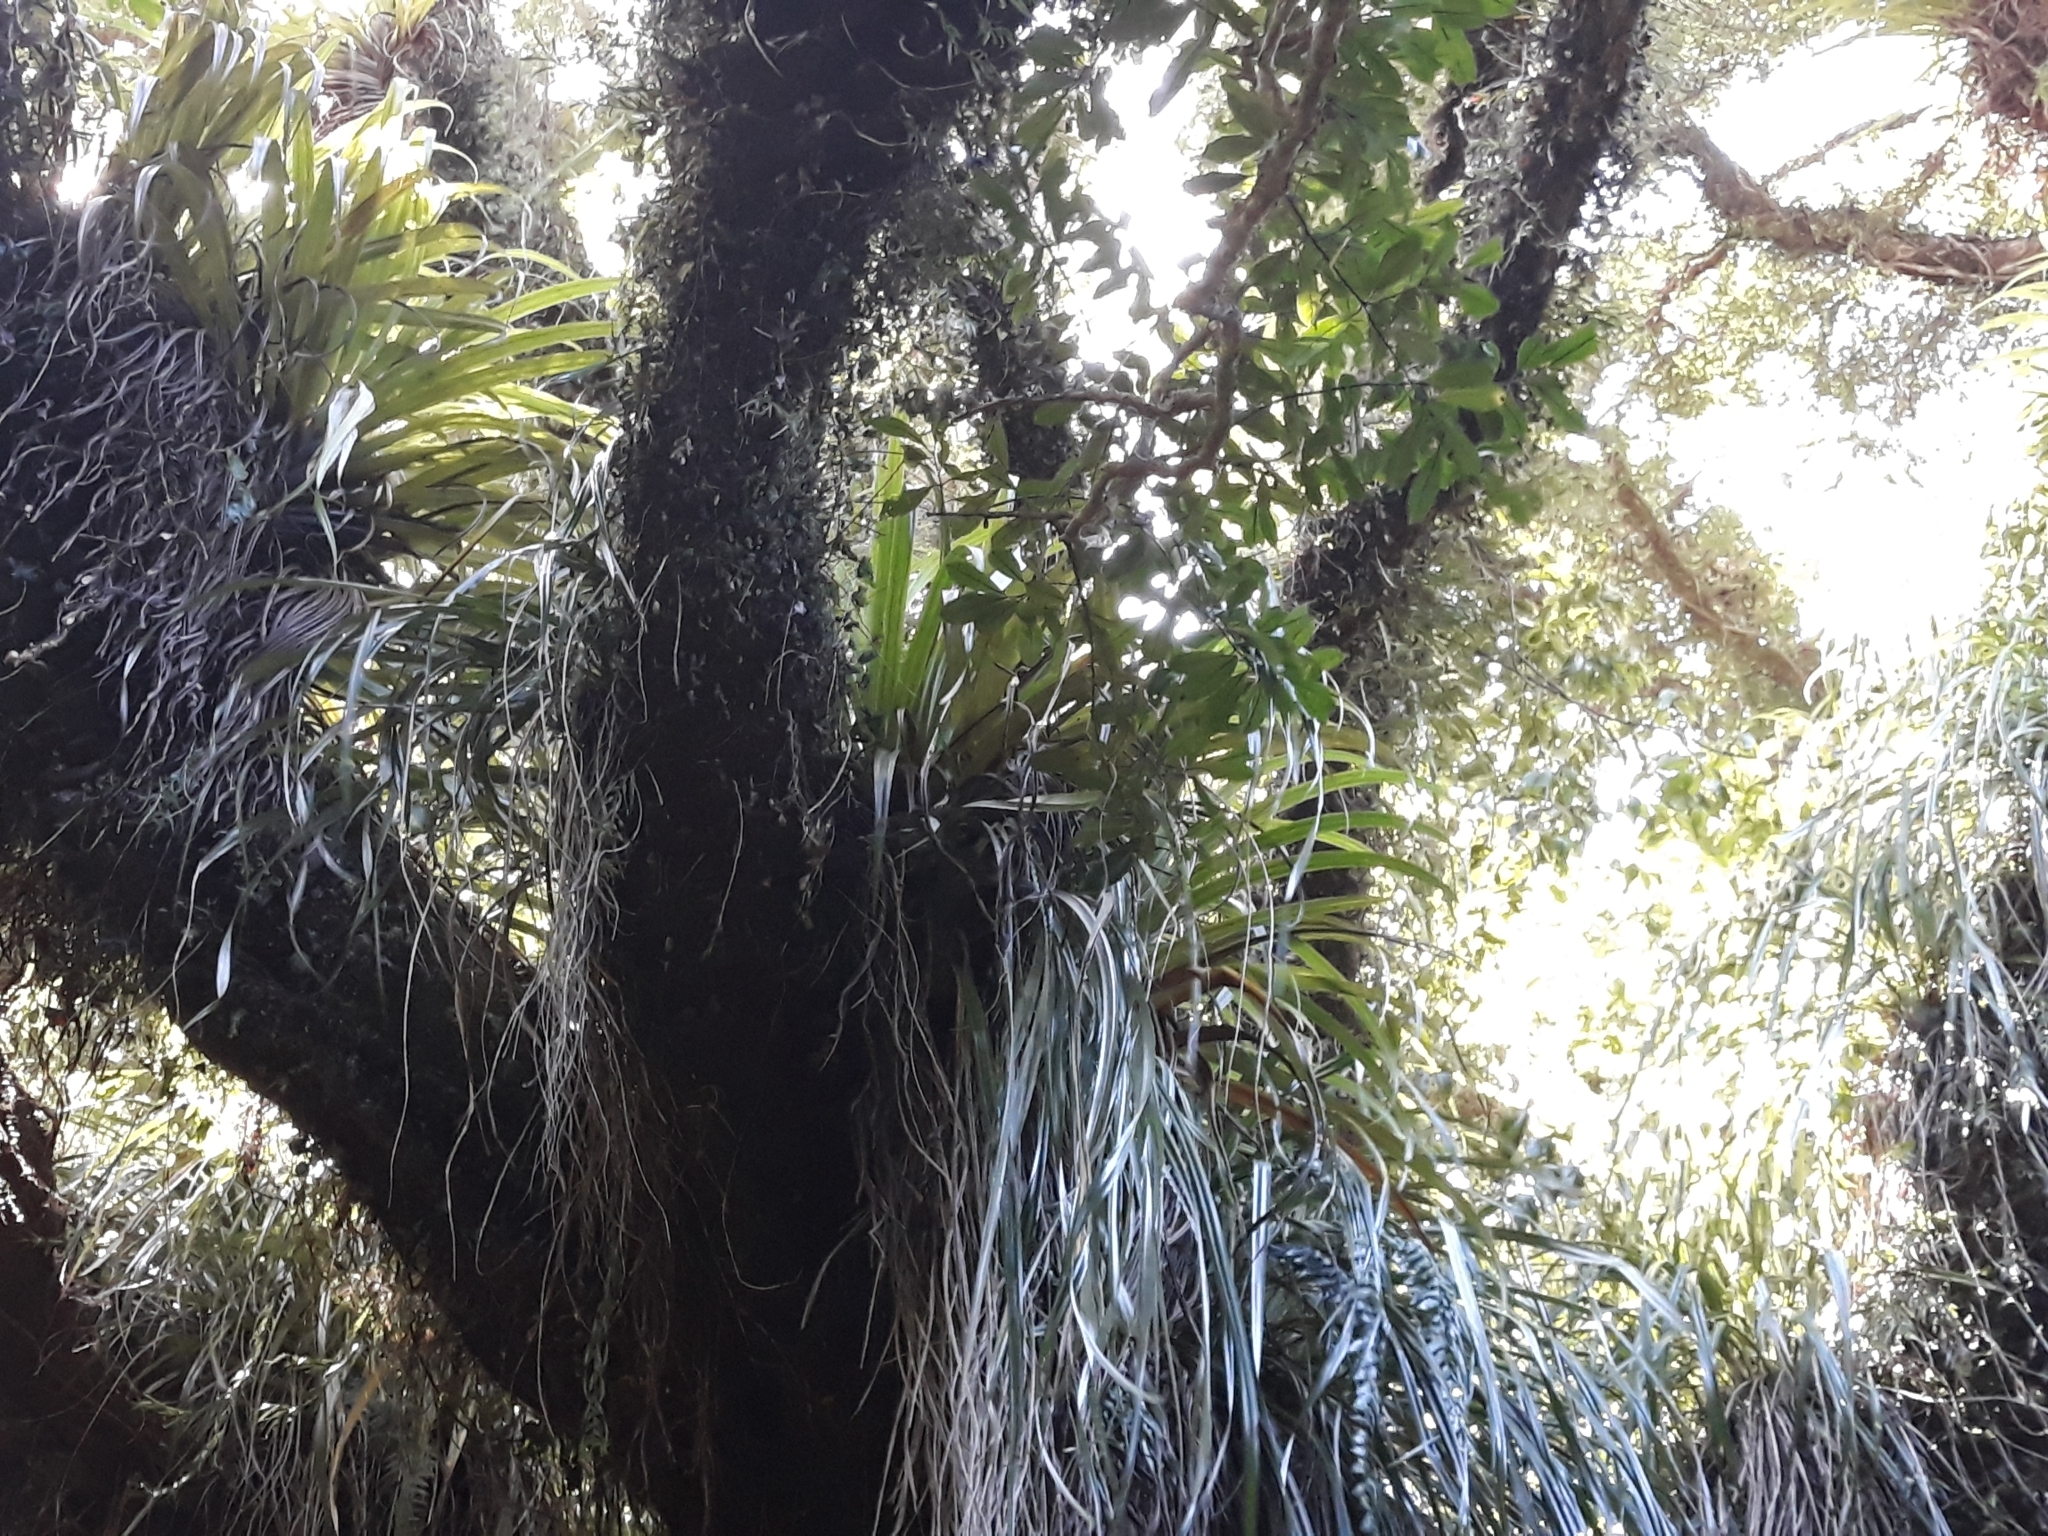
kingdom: Plantae
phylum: Tracheophyta
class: Liliopsida
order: Asparagales
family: Asteliaceae
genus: Astelia
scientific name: Astelia hastata
